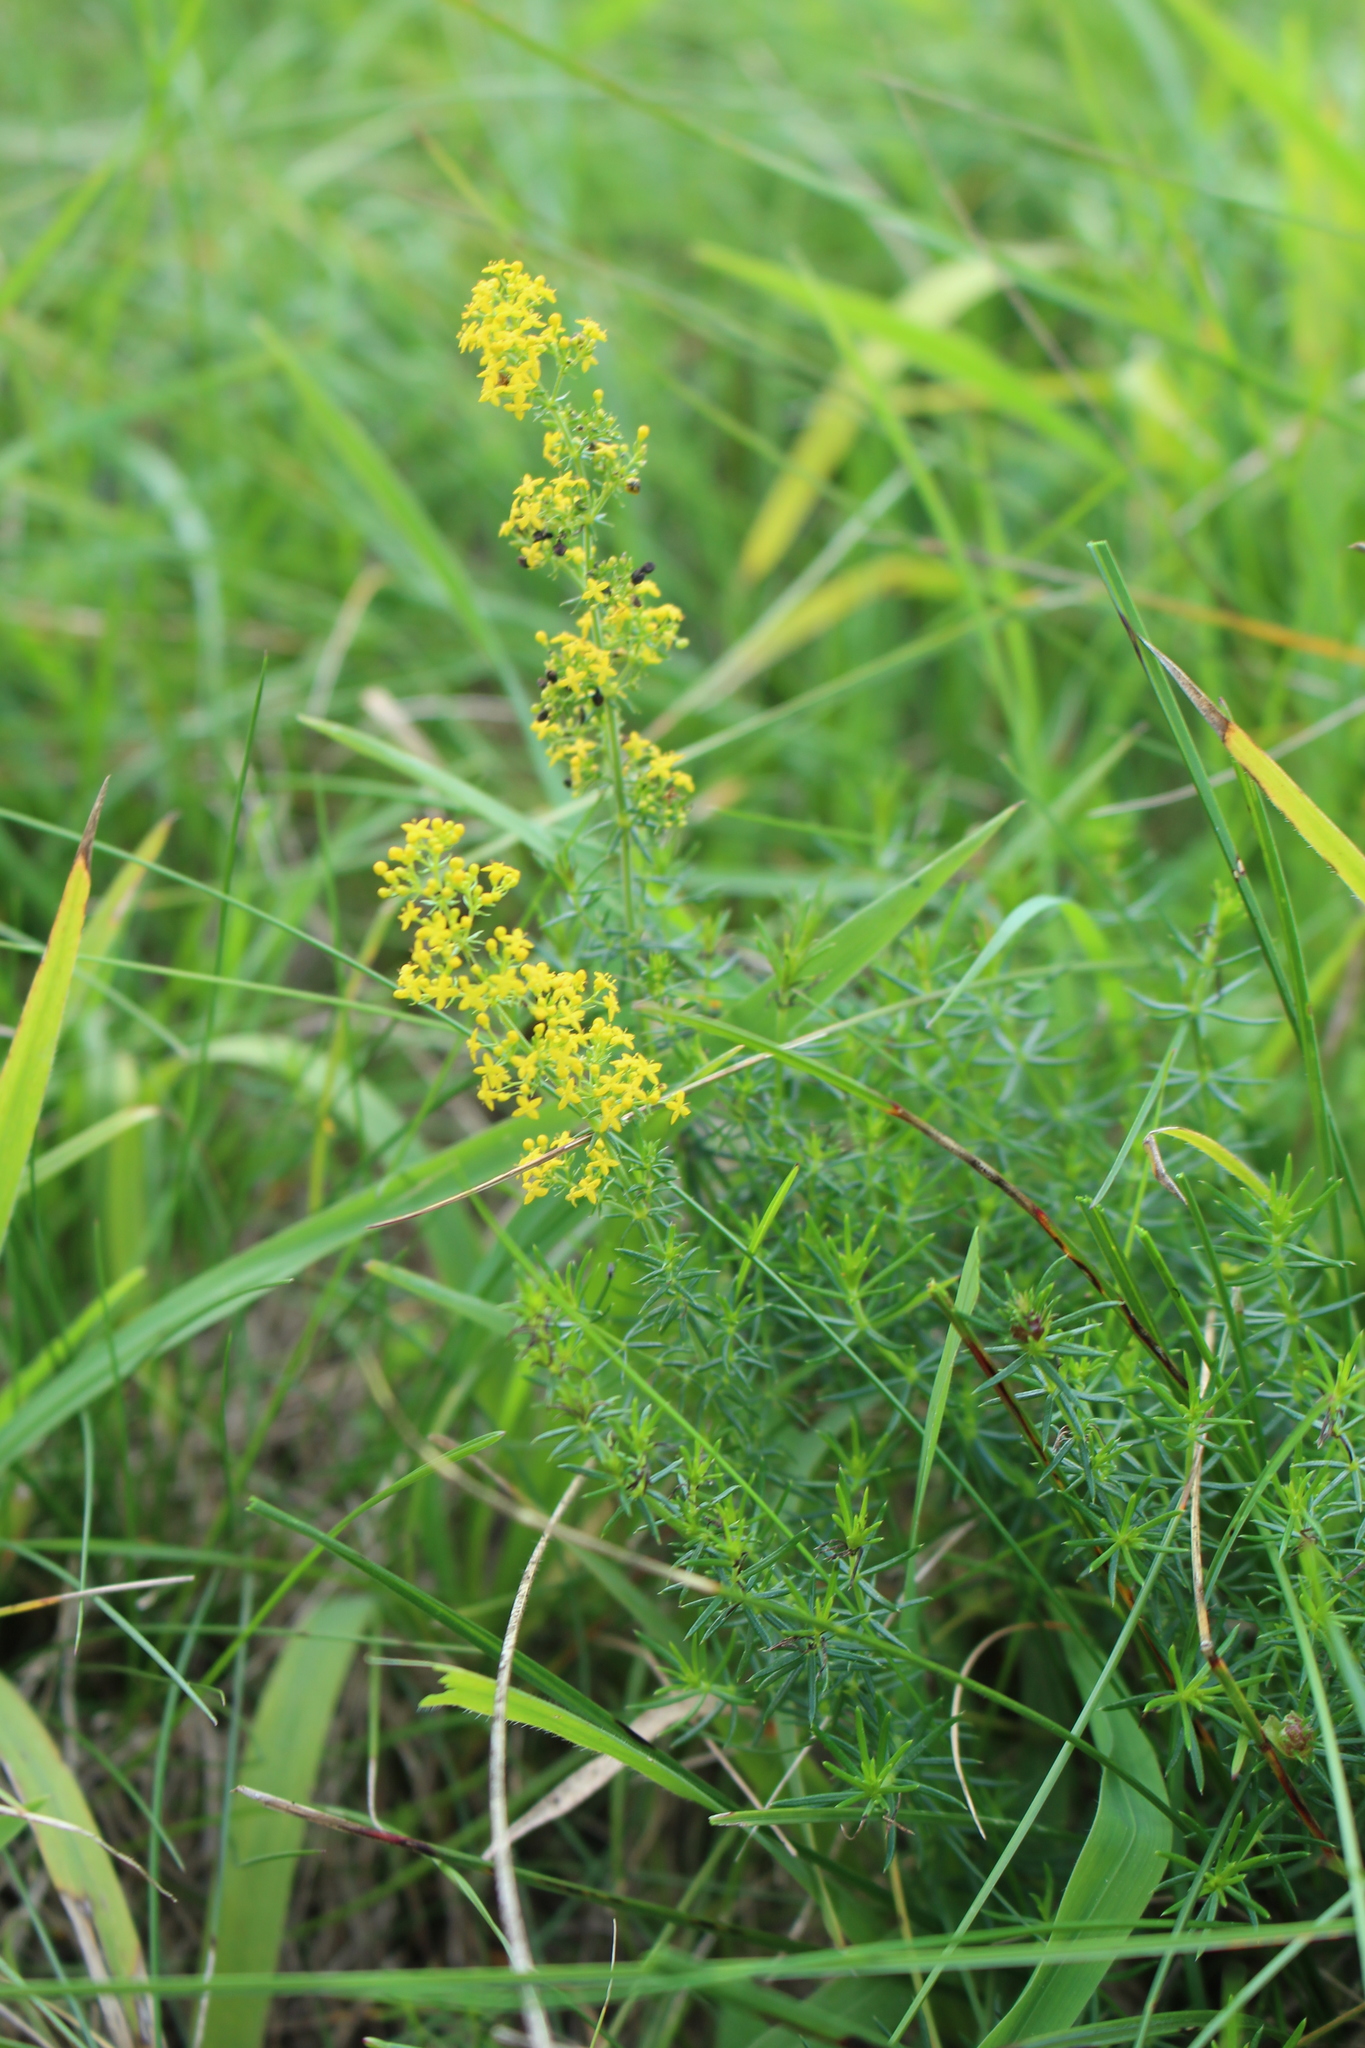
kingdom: Plantae
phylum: Tracheophyta
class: Magnoliopsida
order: Gentianales
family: Rubiaceae
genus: Galium
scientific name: Galium verum
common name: Lady's bedstraw
